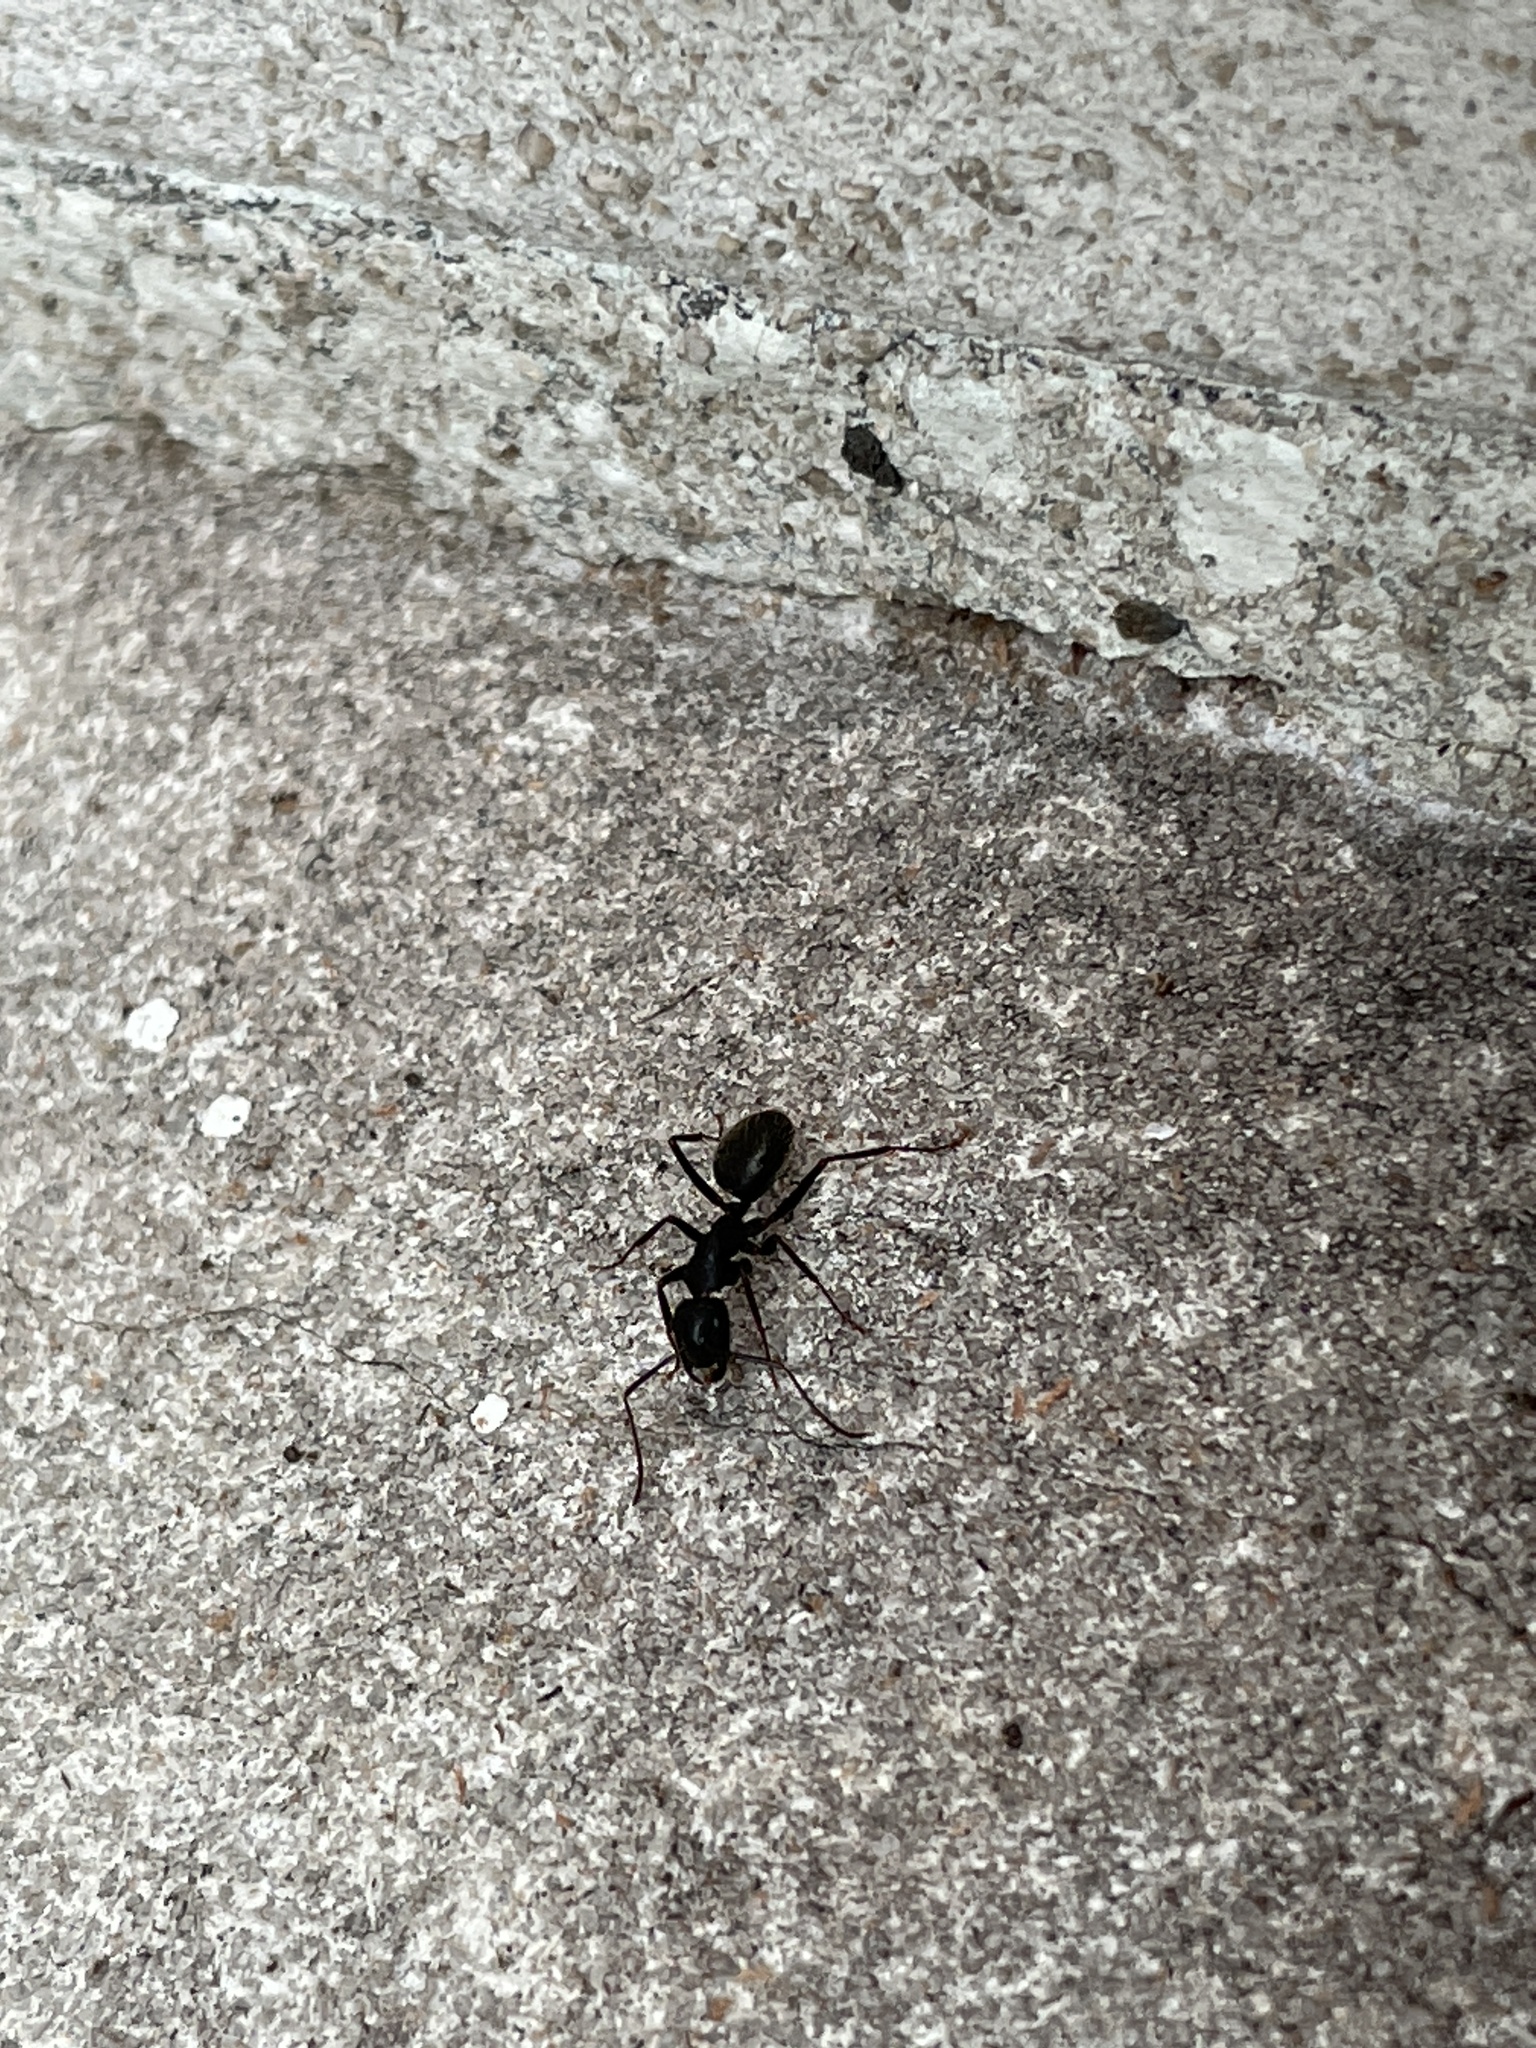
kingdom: Animalia
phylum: Arthropoda
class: Insecta
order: Hymenoptera
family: Formicidae
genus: Camponotus
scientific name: Camponotus pennsylvanicus
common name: Black carpenter ant
